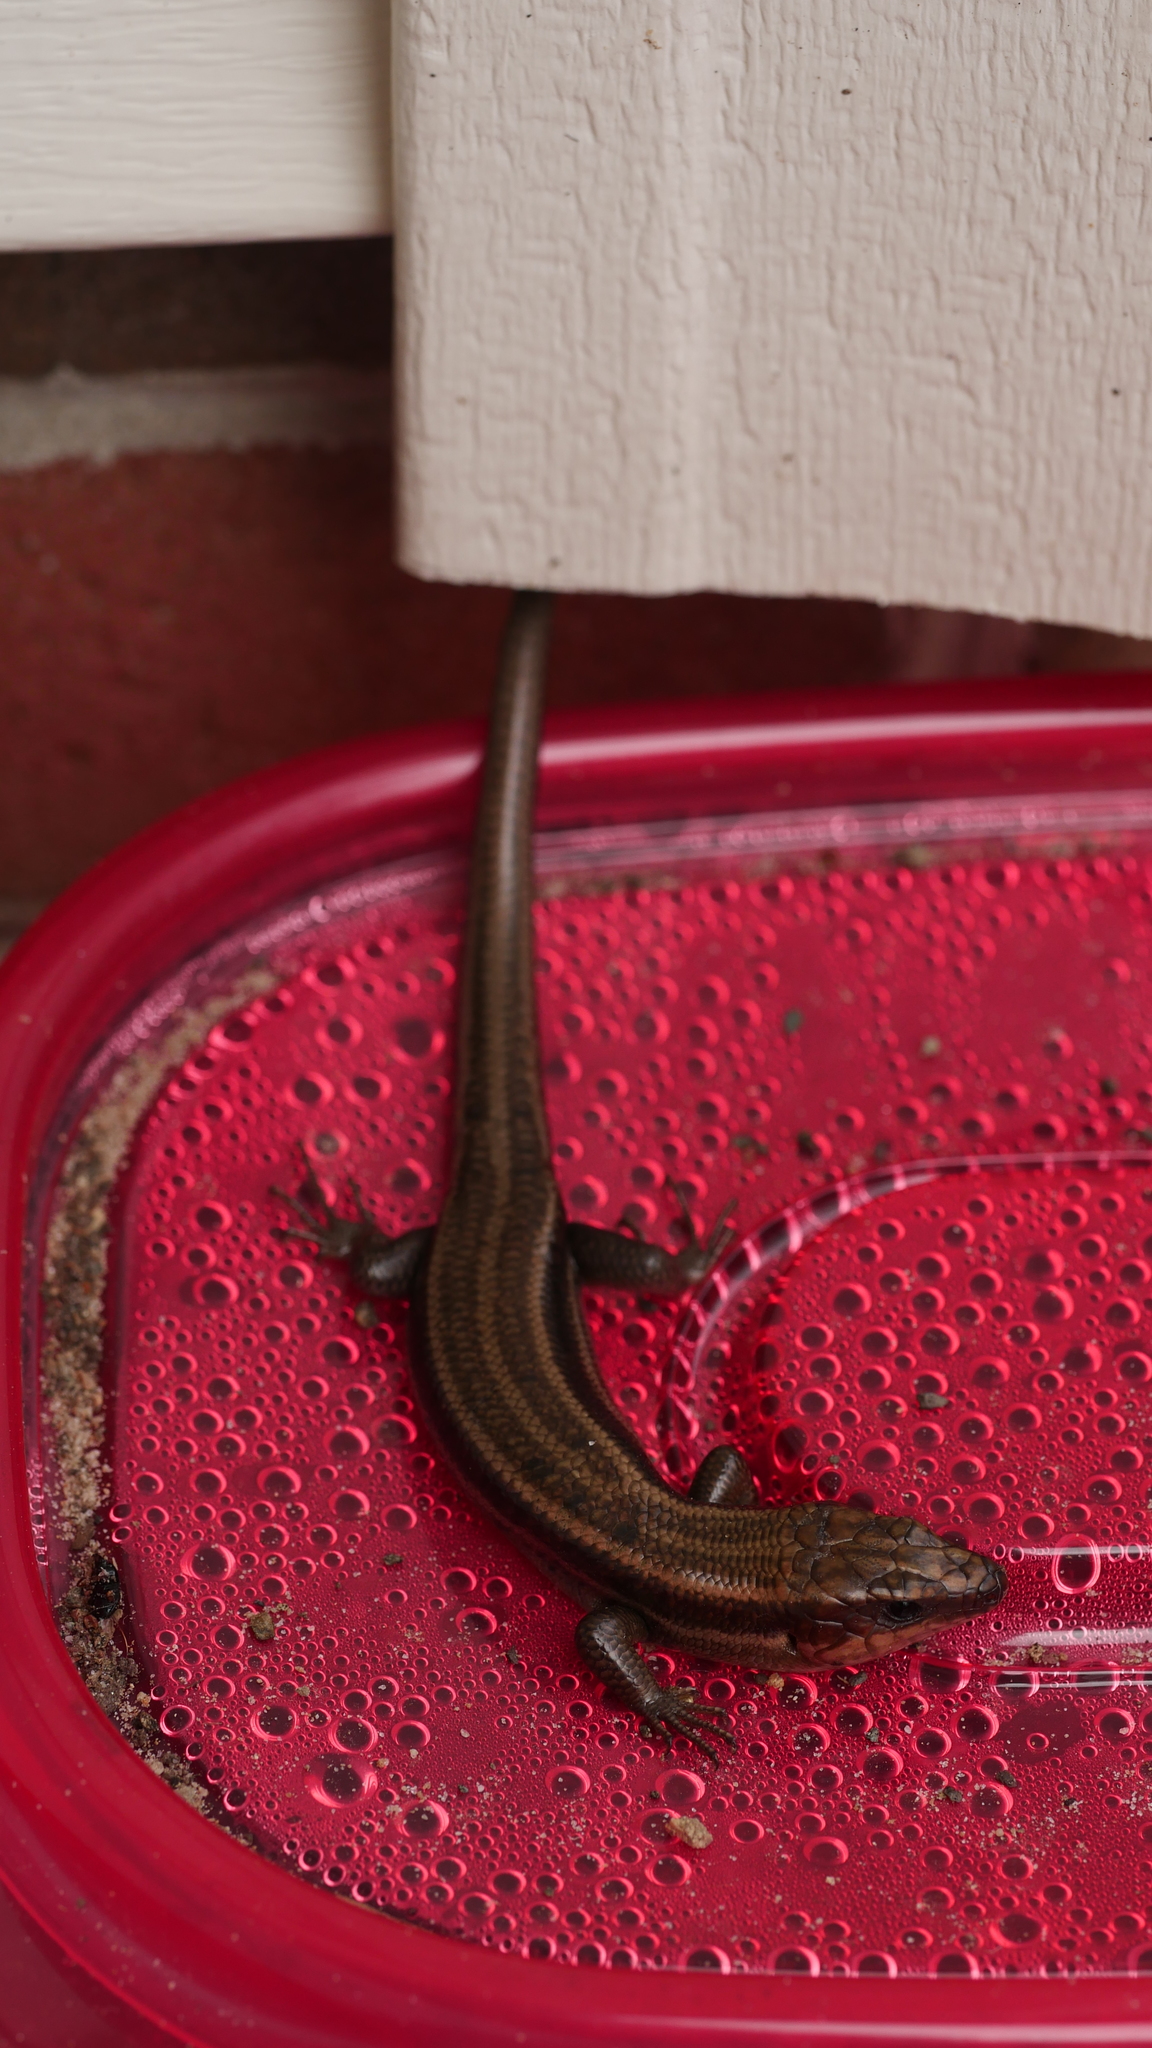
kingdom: Animalia
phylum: Chordata
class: Squamata
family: Scincidae
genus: Plestiodon
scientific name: Plestiodon fasciatus
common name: Five-lined skink
